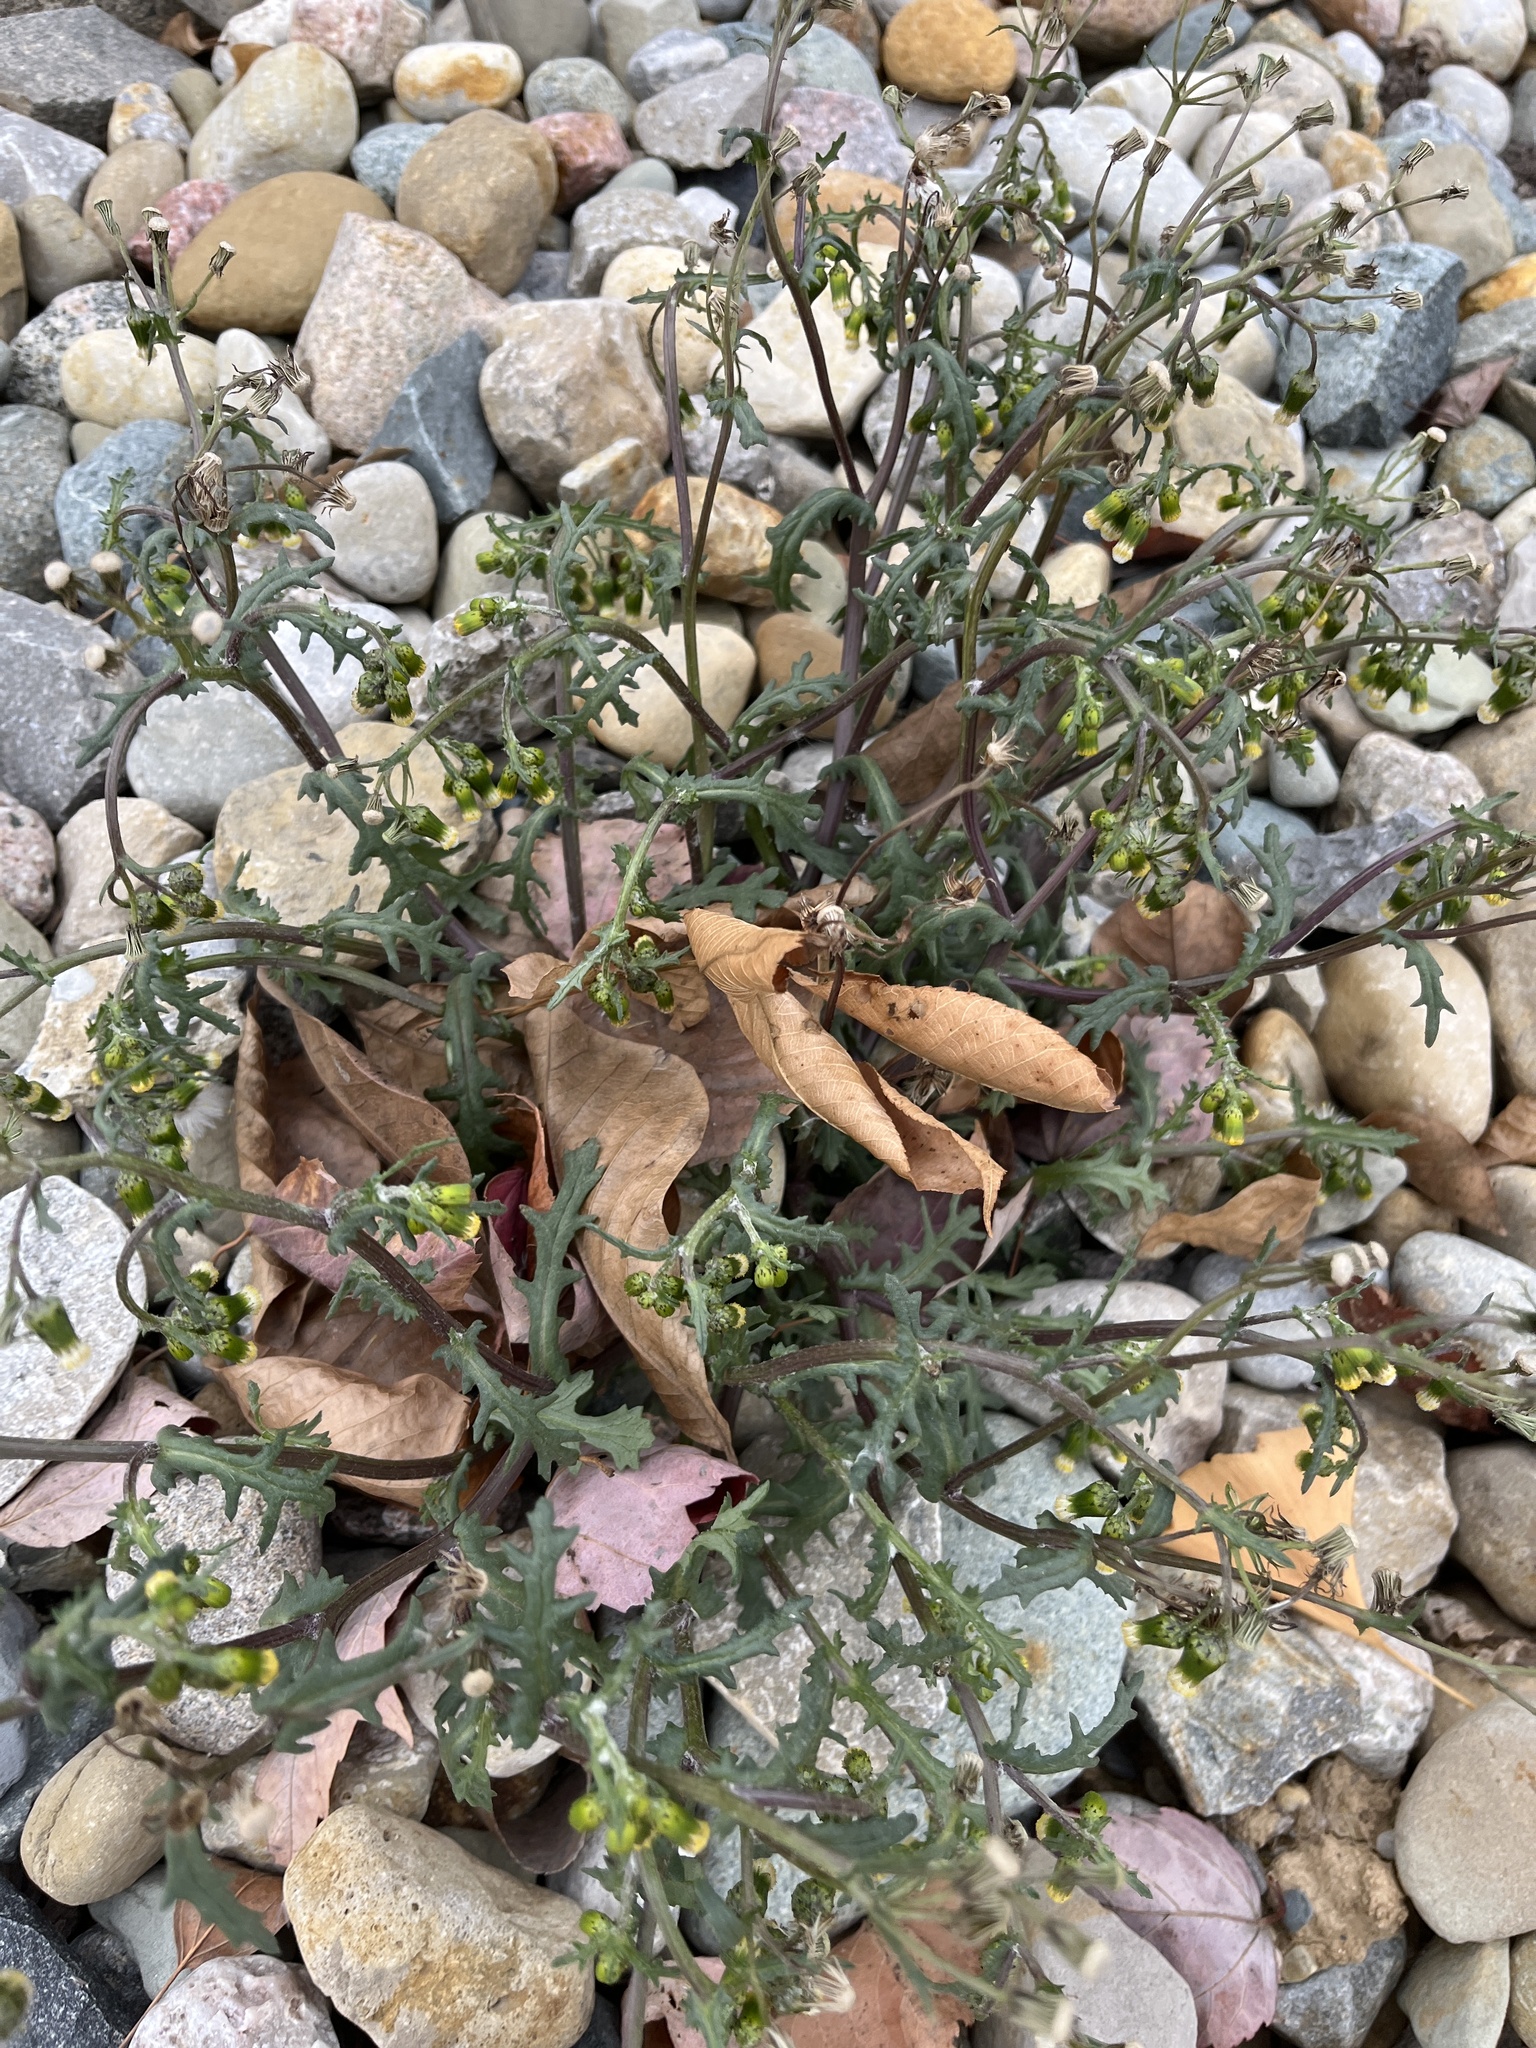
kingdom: Plantae
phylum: Tracheophyta
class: Magnoliopsida
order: Asterales
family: Asteraceae
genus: Senecio
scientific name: Senecio vulgaris
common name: Old-man-in-the-spring
